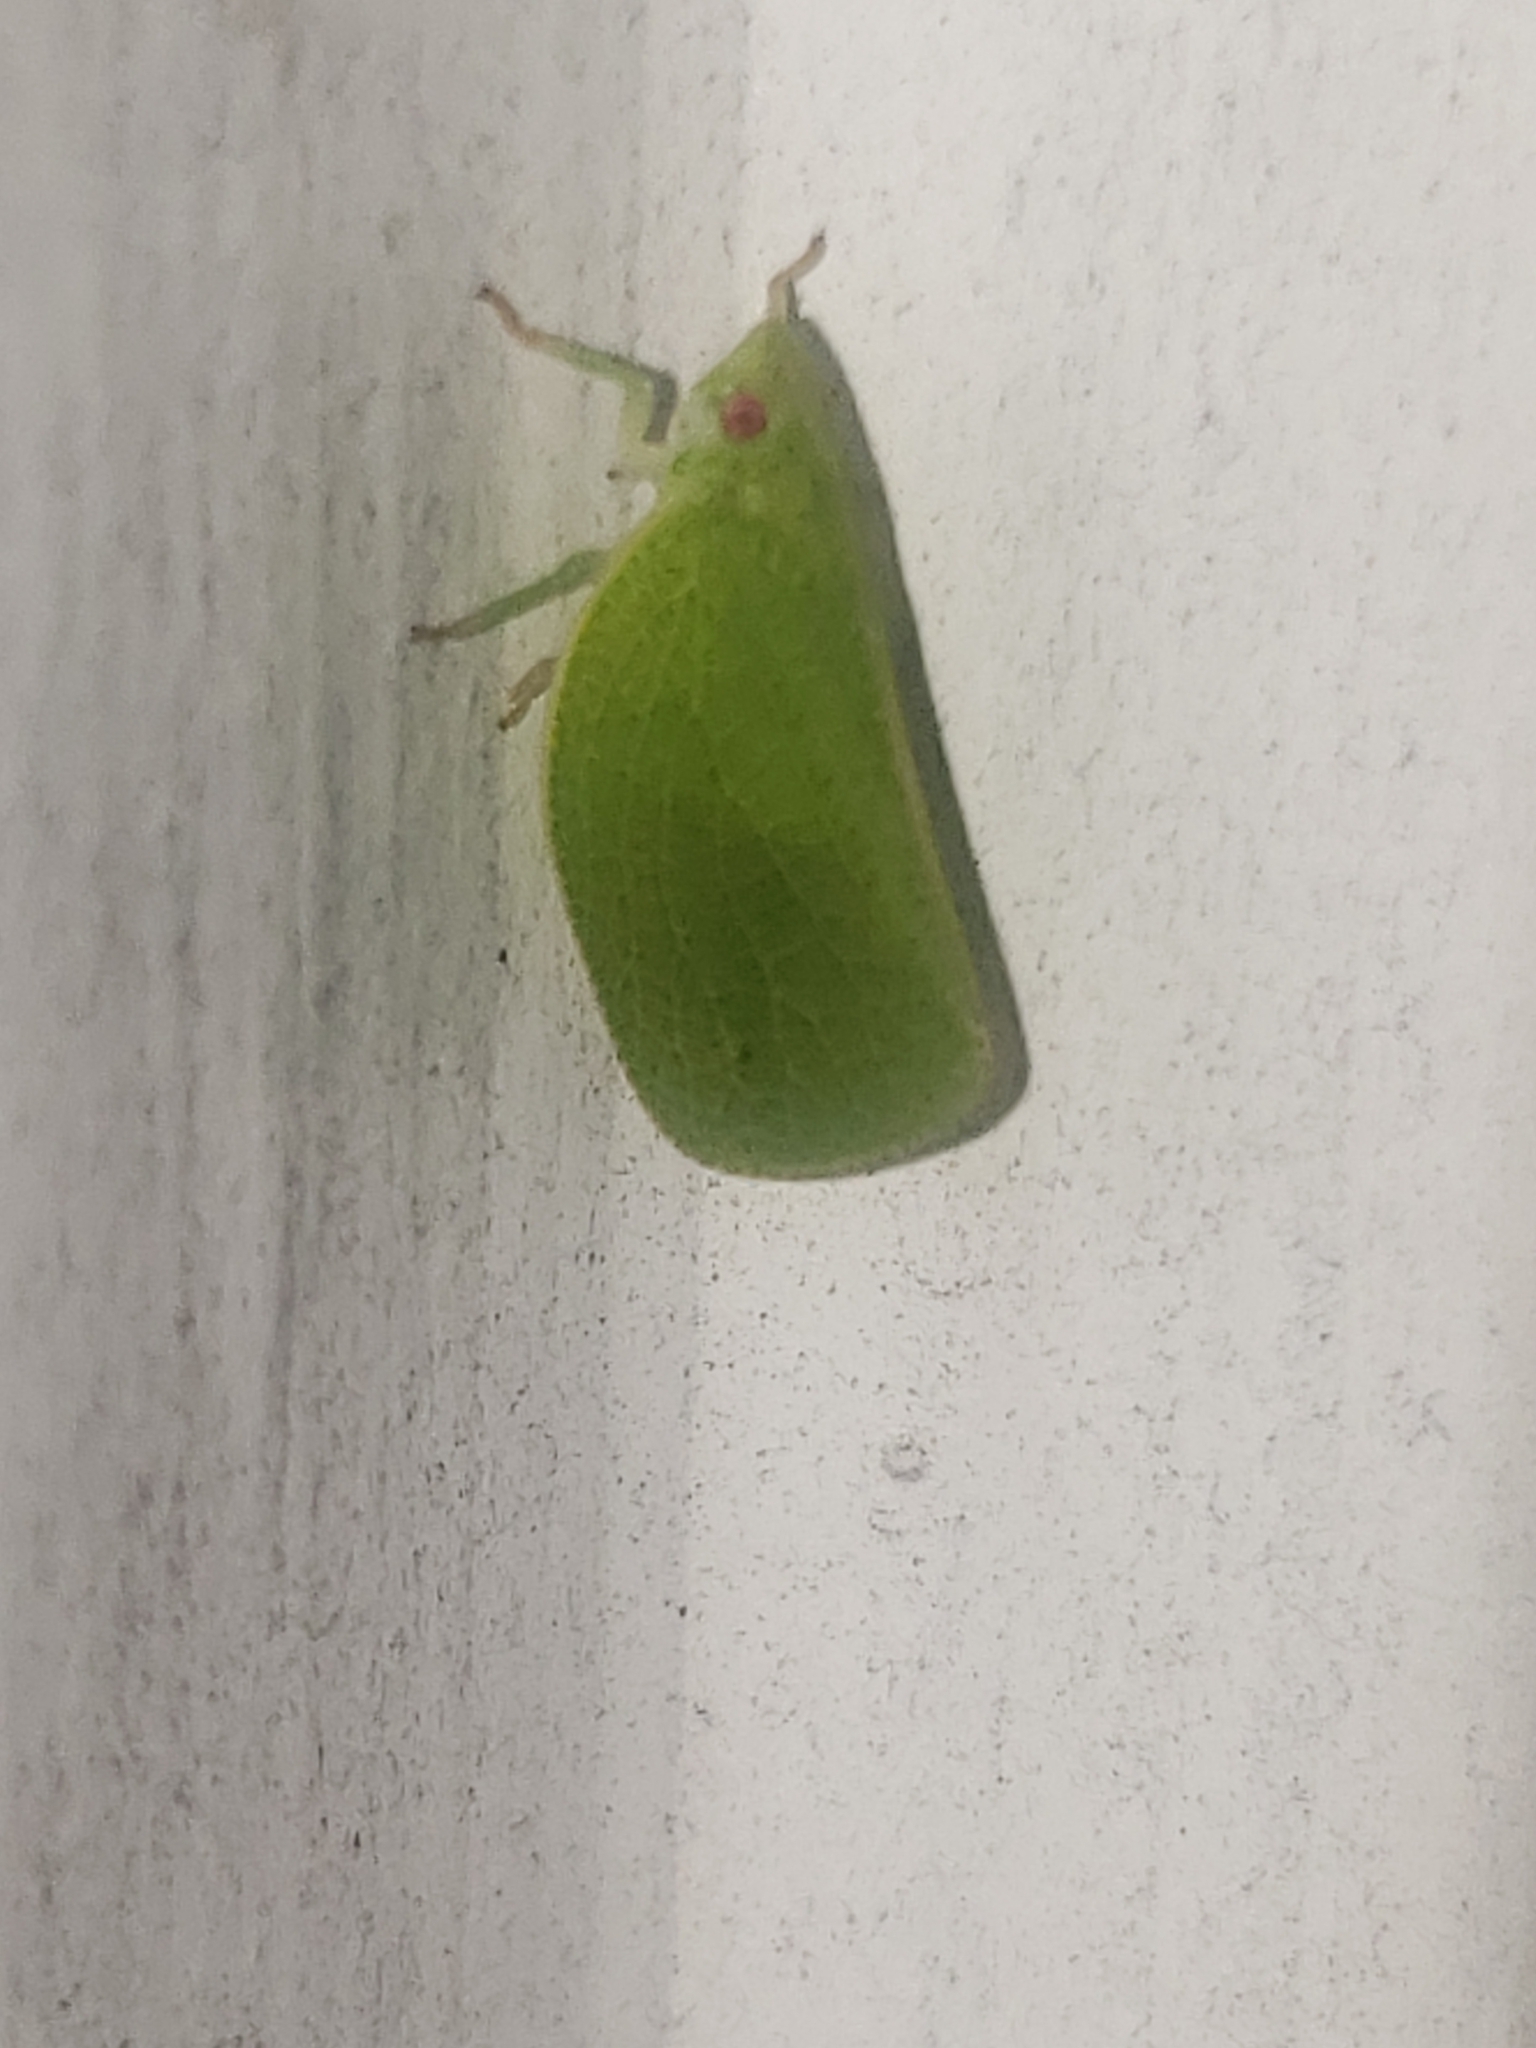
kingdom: Animalia
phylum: Arthropoda
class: Insecta
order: Hemiptera
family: Acanaloniidae
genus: Acanalonia
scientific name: Acanalonia conica
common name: Green cone-headed planthopper
